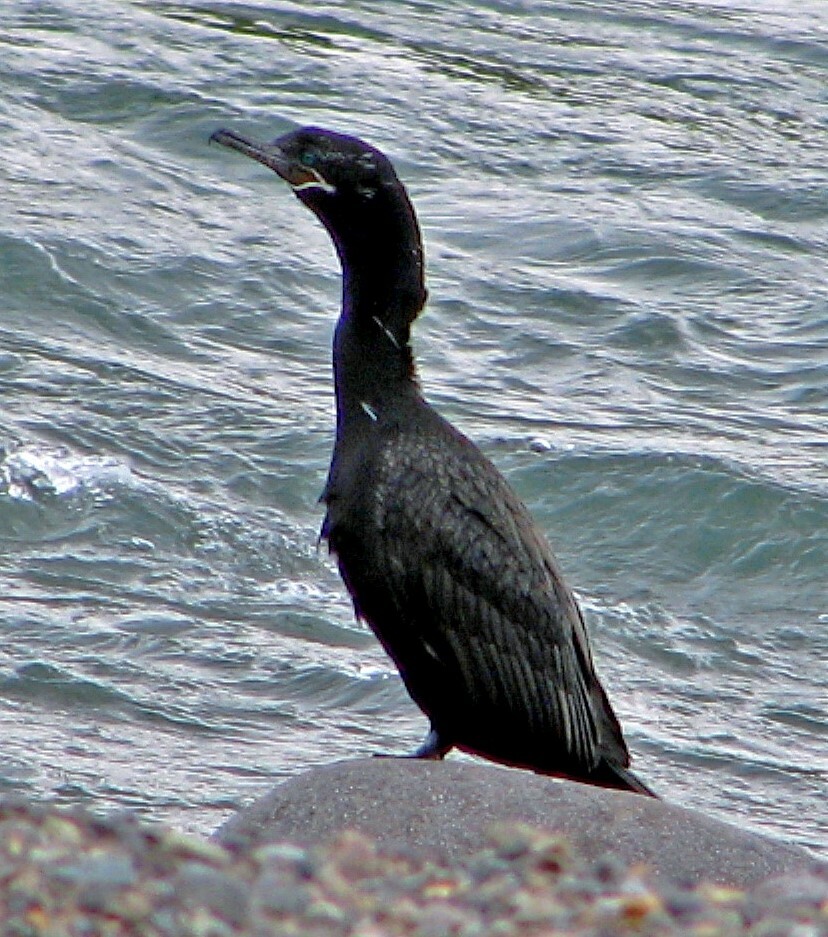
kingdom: Animalia
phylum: Chordata
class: Aves
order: Suliformes
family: Phalacrocoracidae
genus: Phalacrocorax
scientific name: Phalacrocorax brasilianus
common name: Neotropic cormorant
